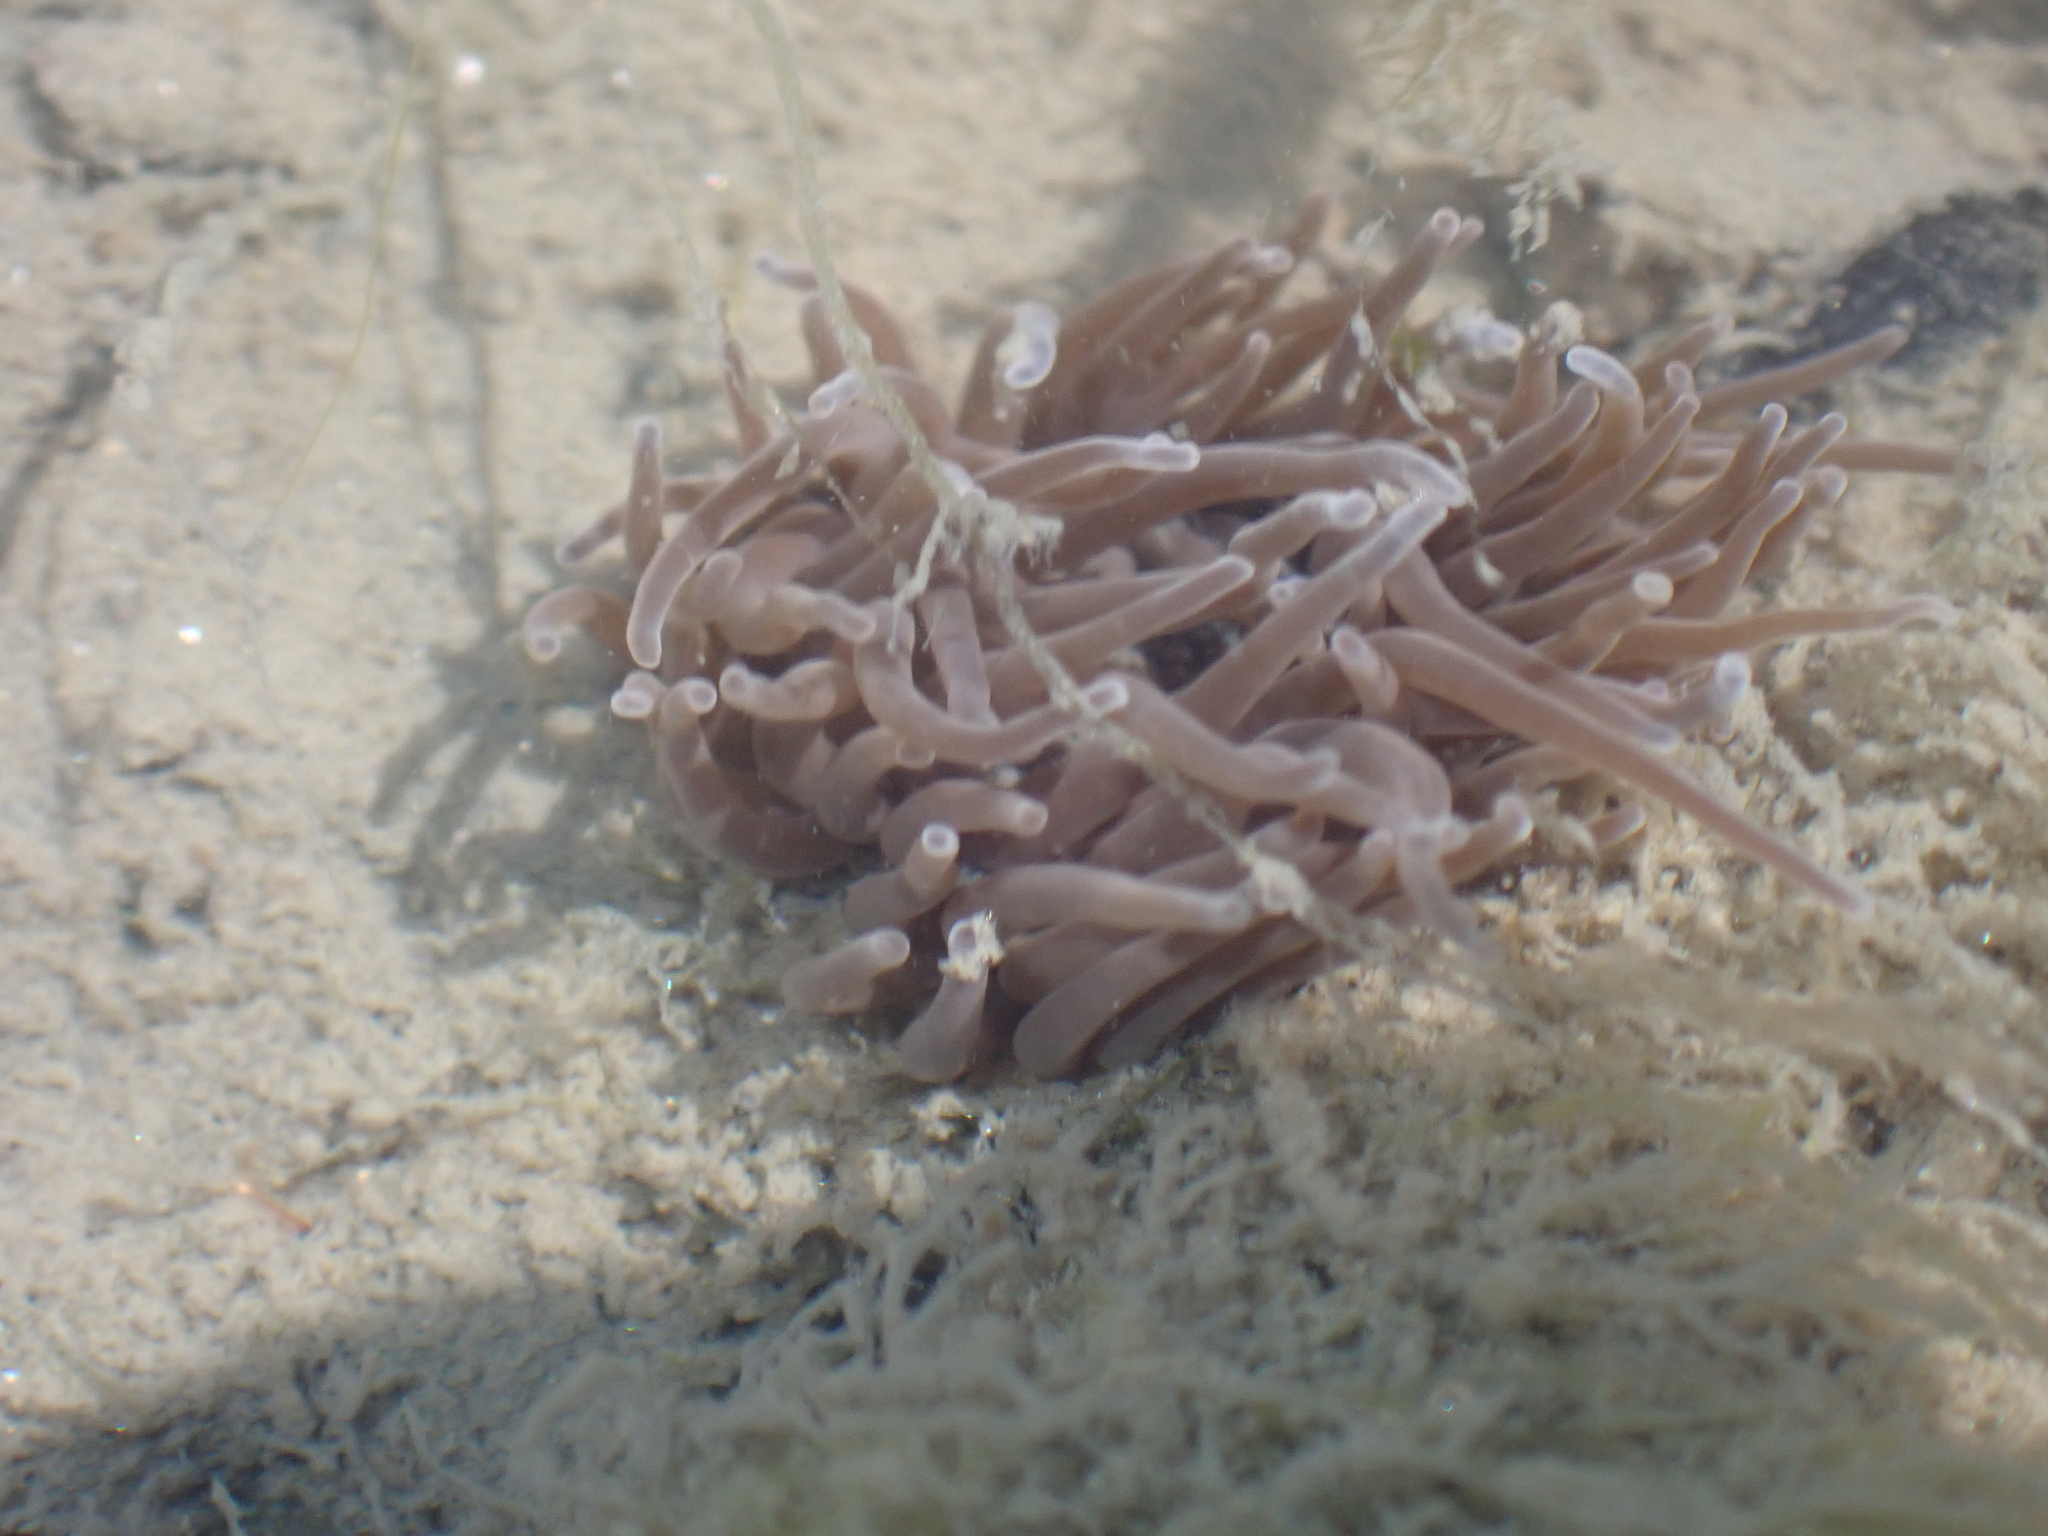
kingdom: Animalia
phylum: Cnidaria
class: Anthozoa
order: Actiniaria
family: Actiniidae
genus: Anemonia
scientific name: Anemonia viridis
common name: Snakelocks anemone
